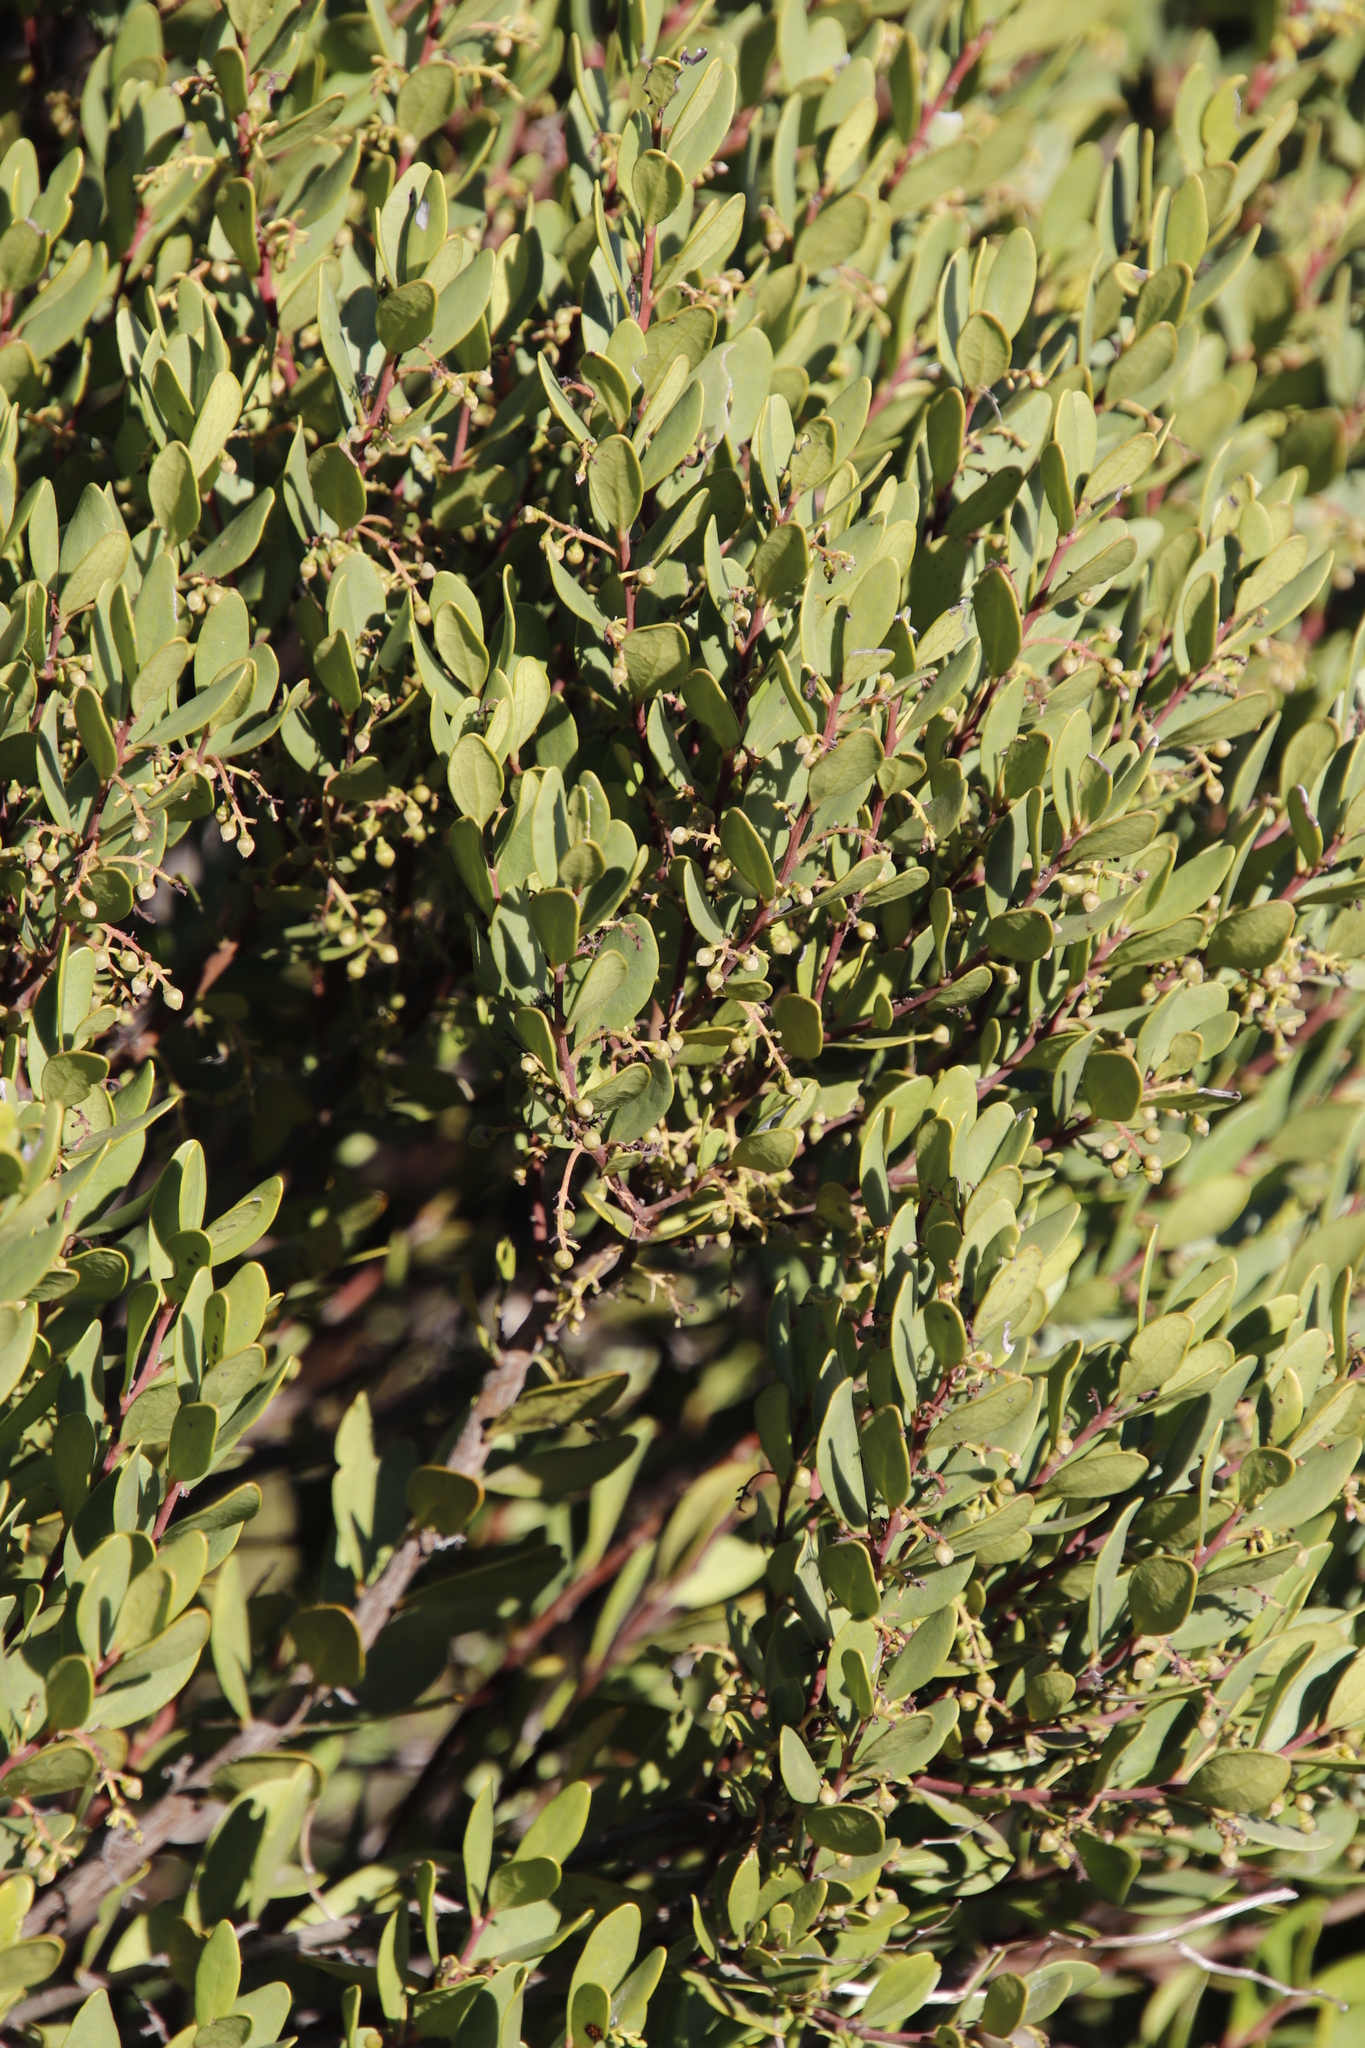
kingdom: Plantae
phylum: Tracheophyta
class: Magnoliopsida
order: Ericales
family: Ebenaceae
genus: Euclea
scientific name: Euclea racemosa
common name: Dune guarri
